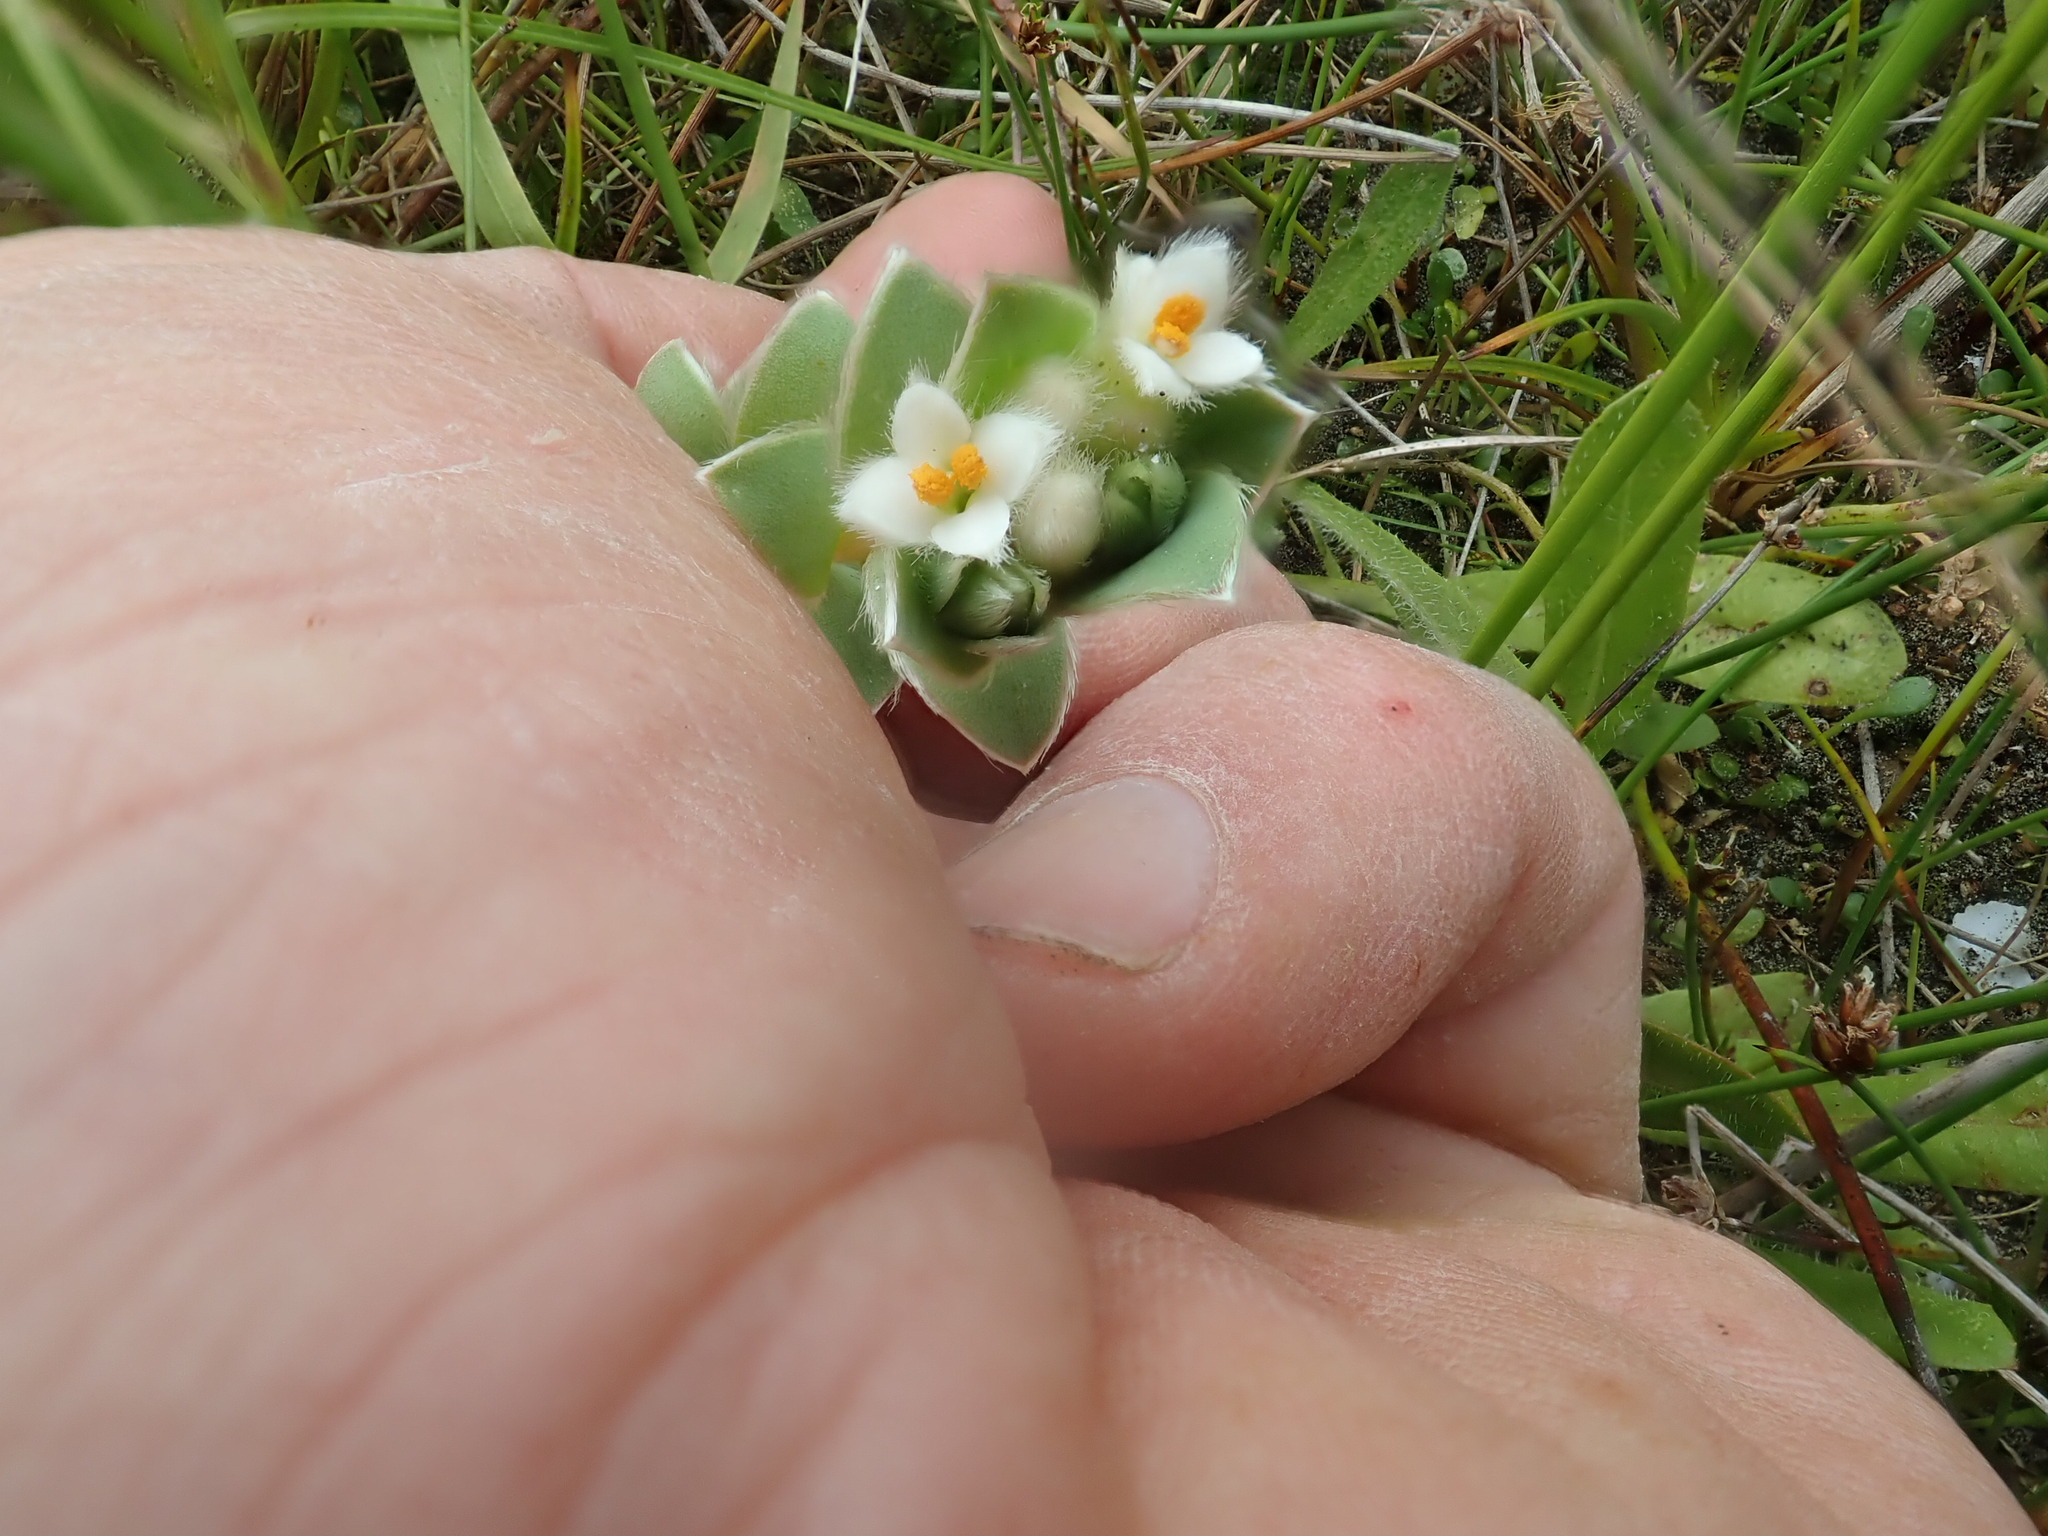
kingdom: Plantae
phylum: Tracheophyta
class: Magnoliopsida
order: Malvales
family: Thymelaeaceae
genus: Pimelea
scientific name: Pimelea villosa
